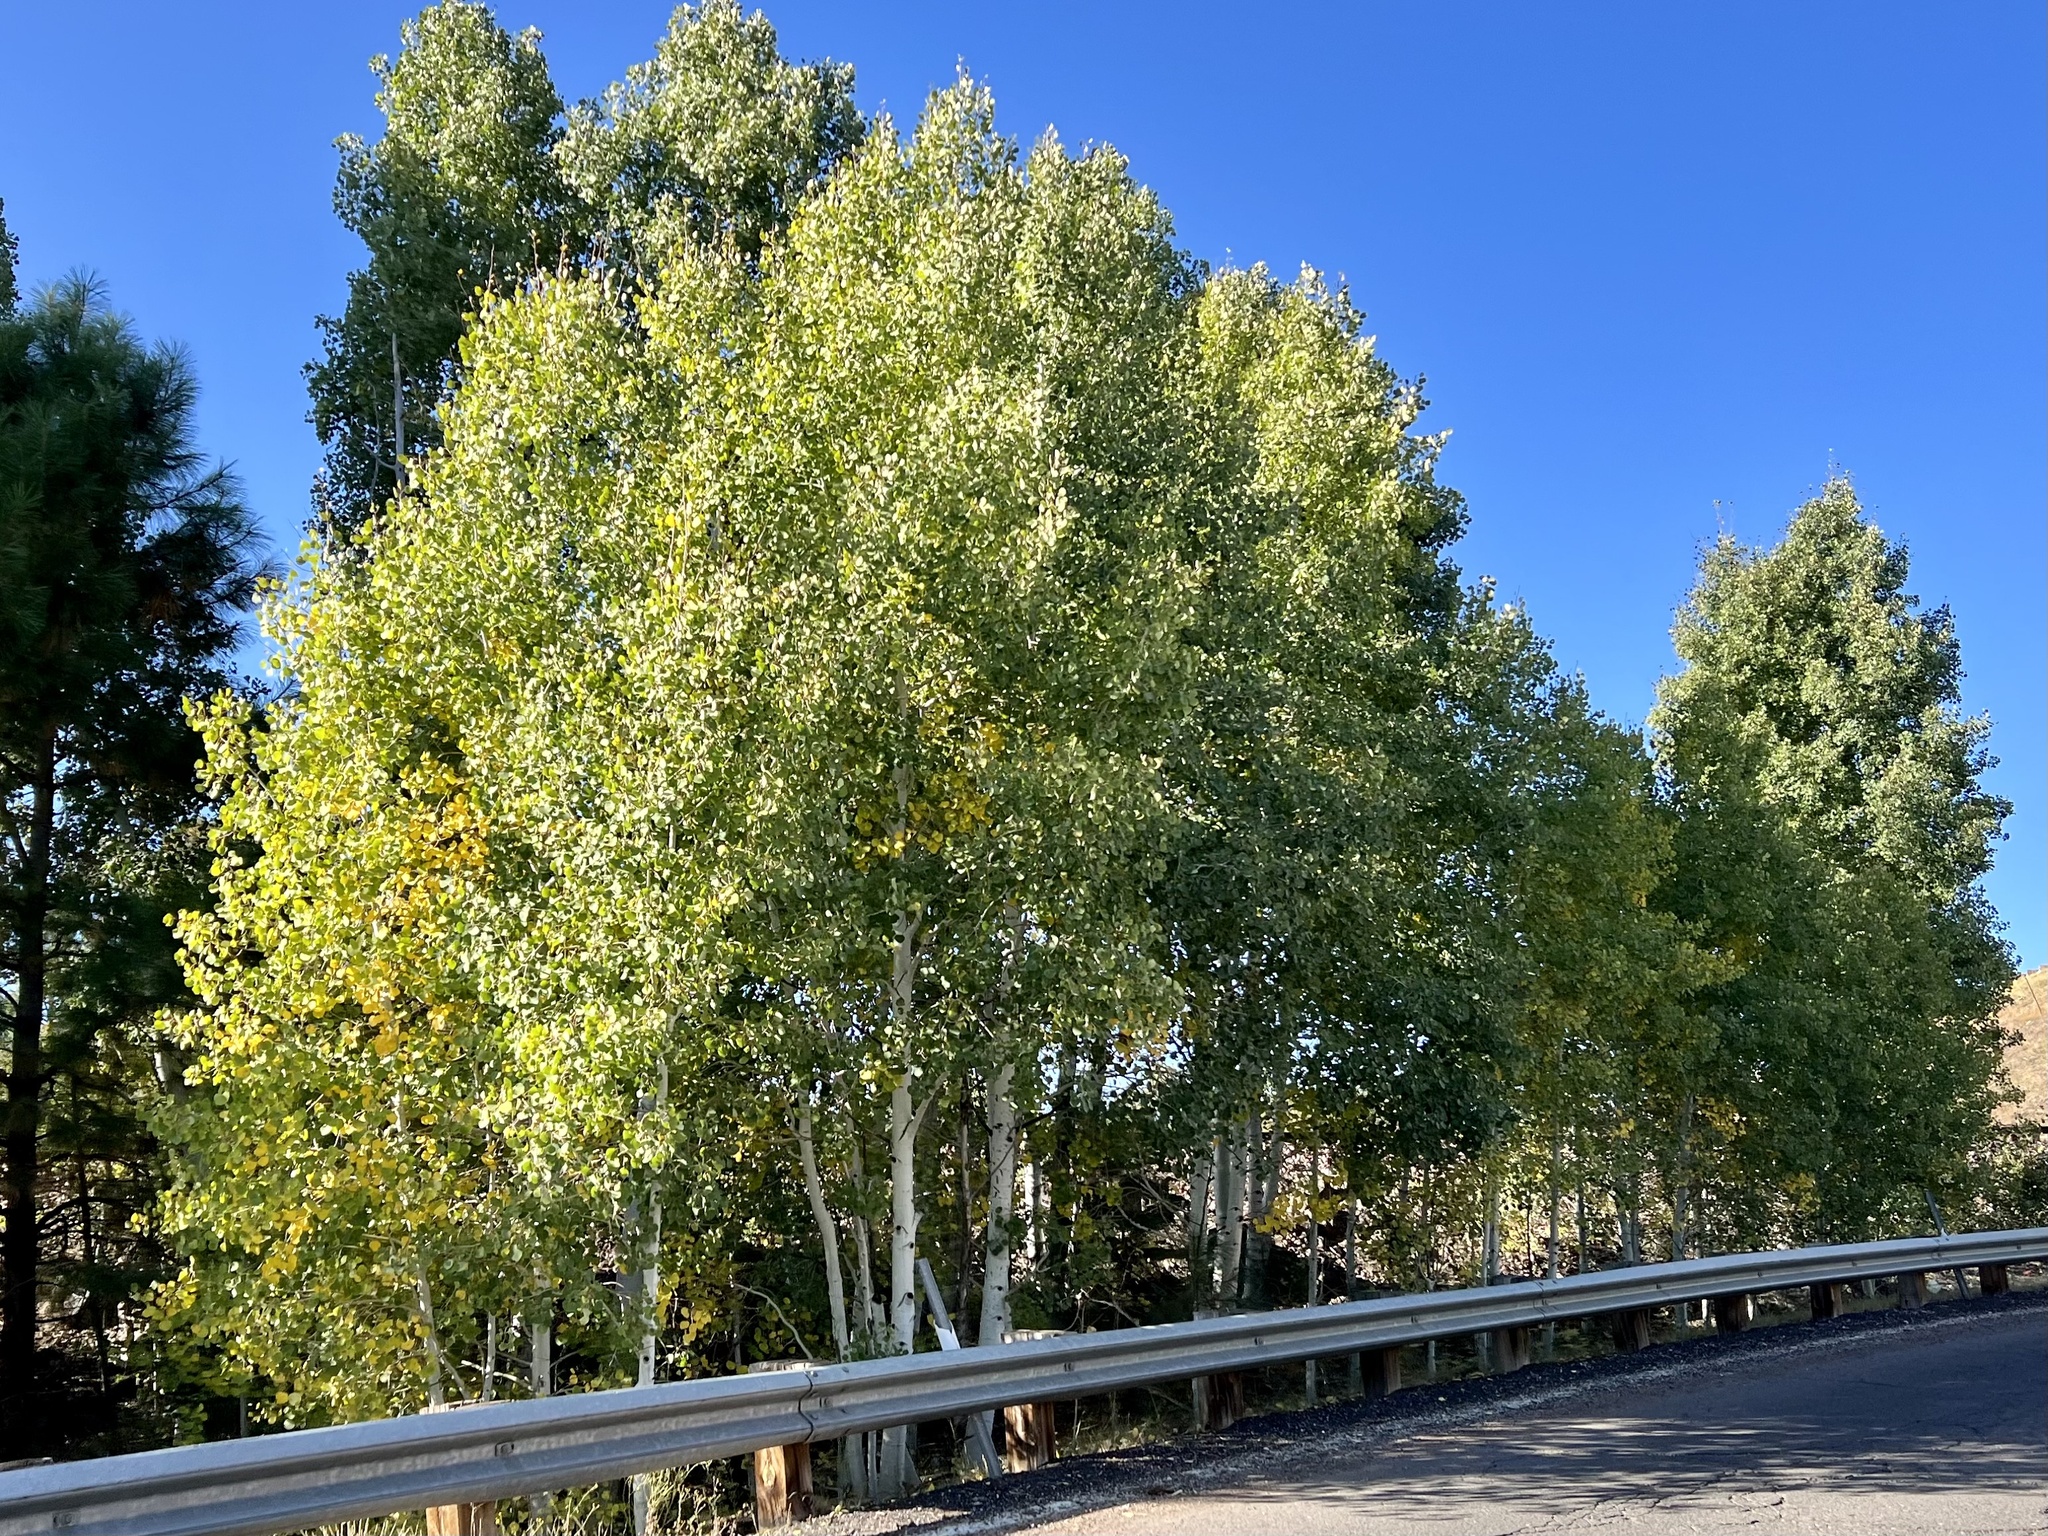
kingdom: Plantae
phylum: Tracheophyta
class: Magnoliopsida
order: Malpighiales
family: Salicaceae
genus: Populus
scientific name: Populus tremuloides
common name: Quaking aspen
